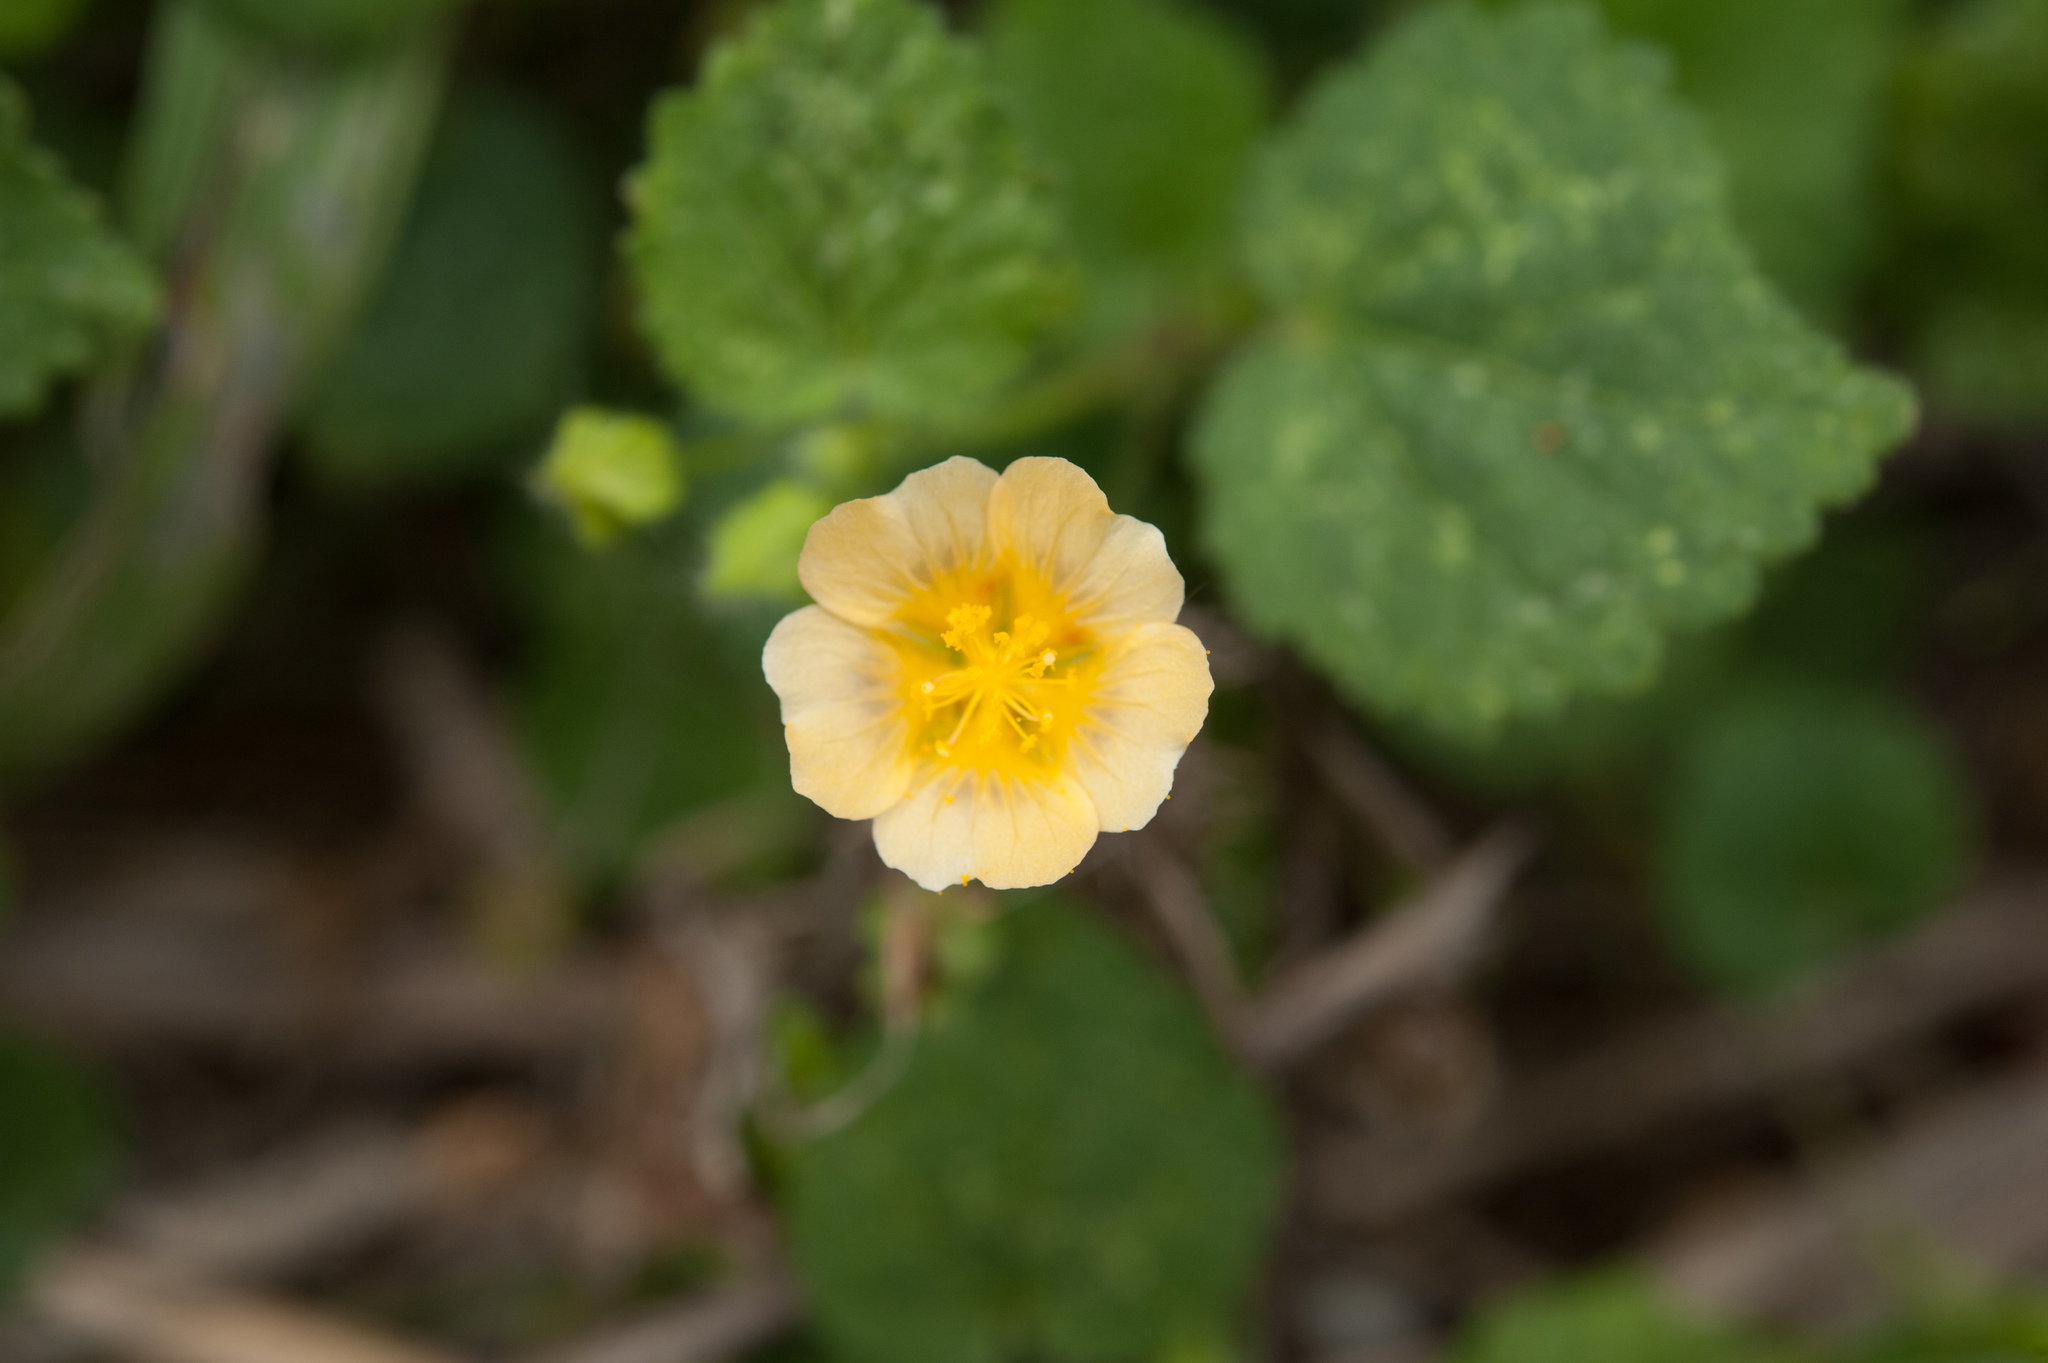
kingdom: Plantae
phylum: Tracheophyta
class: Magnoliopsida
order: Malvales
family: Malvaceae
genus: Sida
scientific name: Sida cordata
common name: Long-stalk sida
